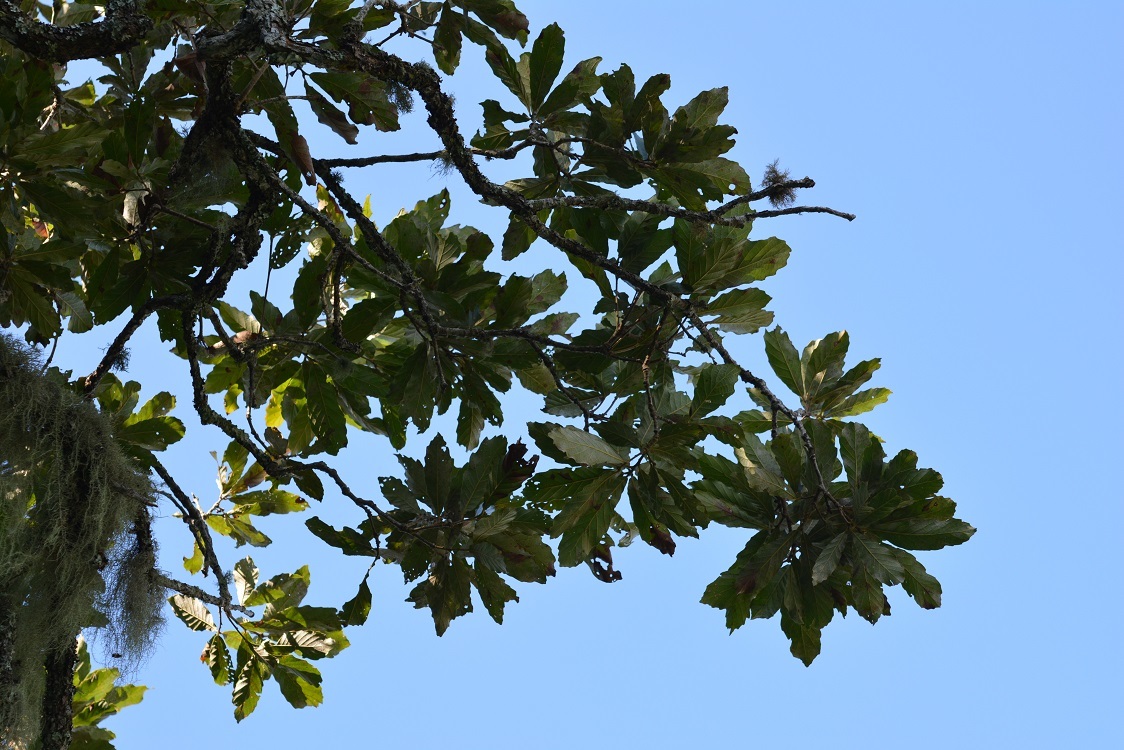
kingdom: Plantae
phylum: Tracheophyta
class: Magnoliopsida
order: Fagales
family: Fagaceae
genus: Quercus
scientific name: Quercus purulhana
